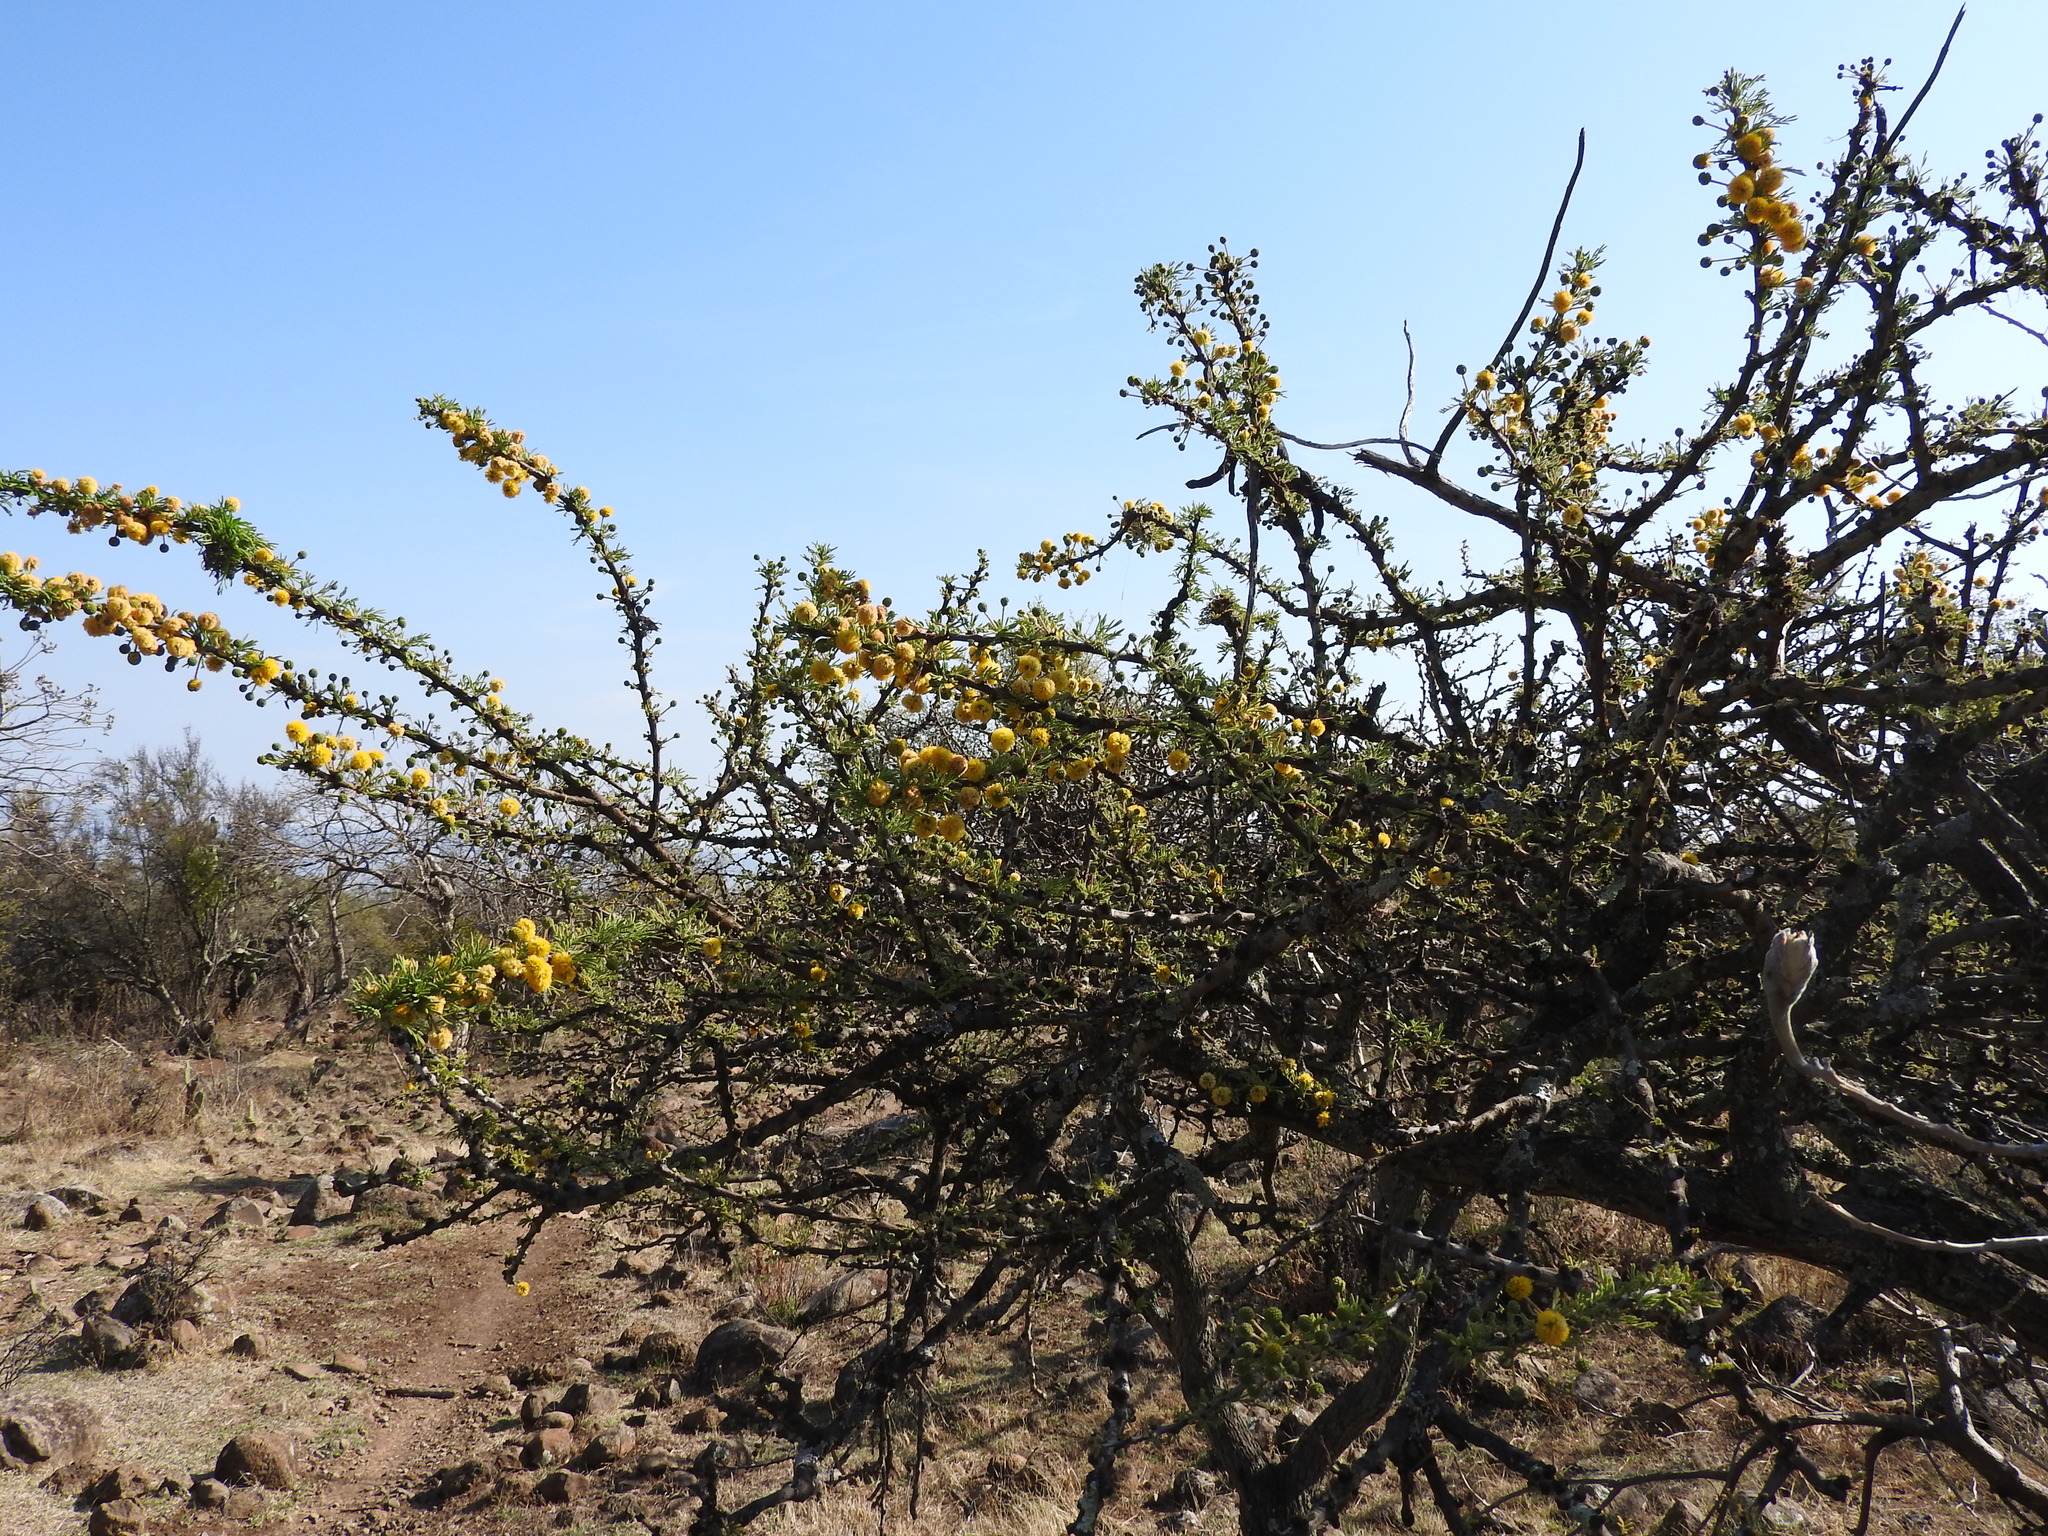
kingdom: Plantae
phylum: Tracheophyta
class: Magnoliopsida
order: Fabales
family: Fabaceae
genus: Vachellia
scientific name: Vachellia schaffneri
